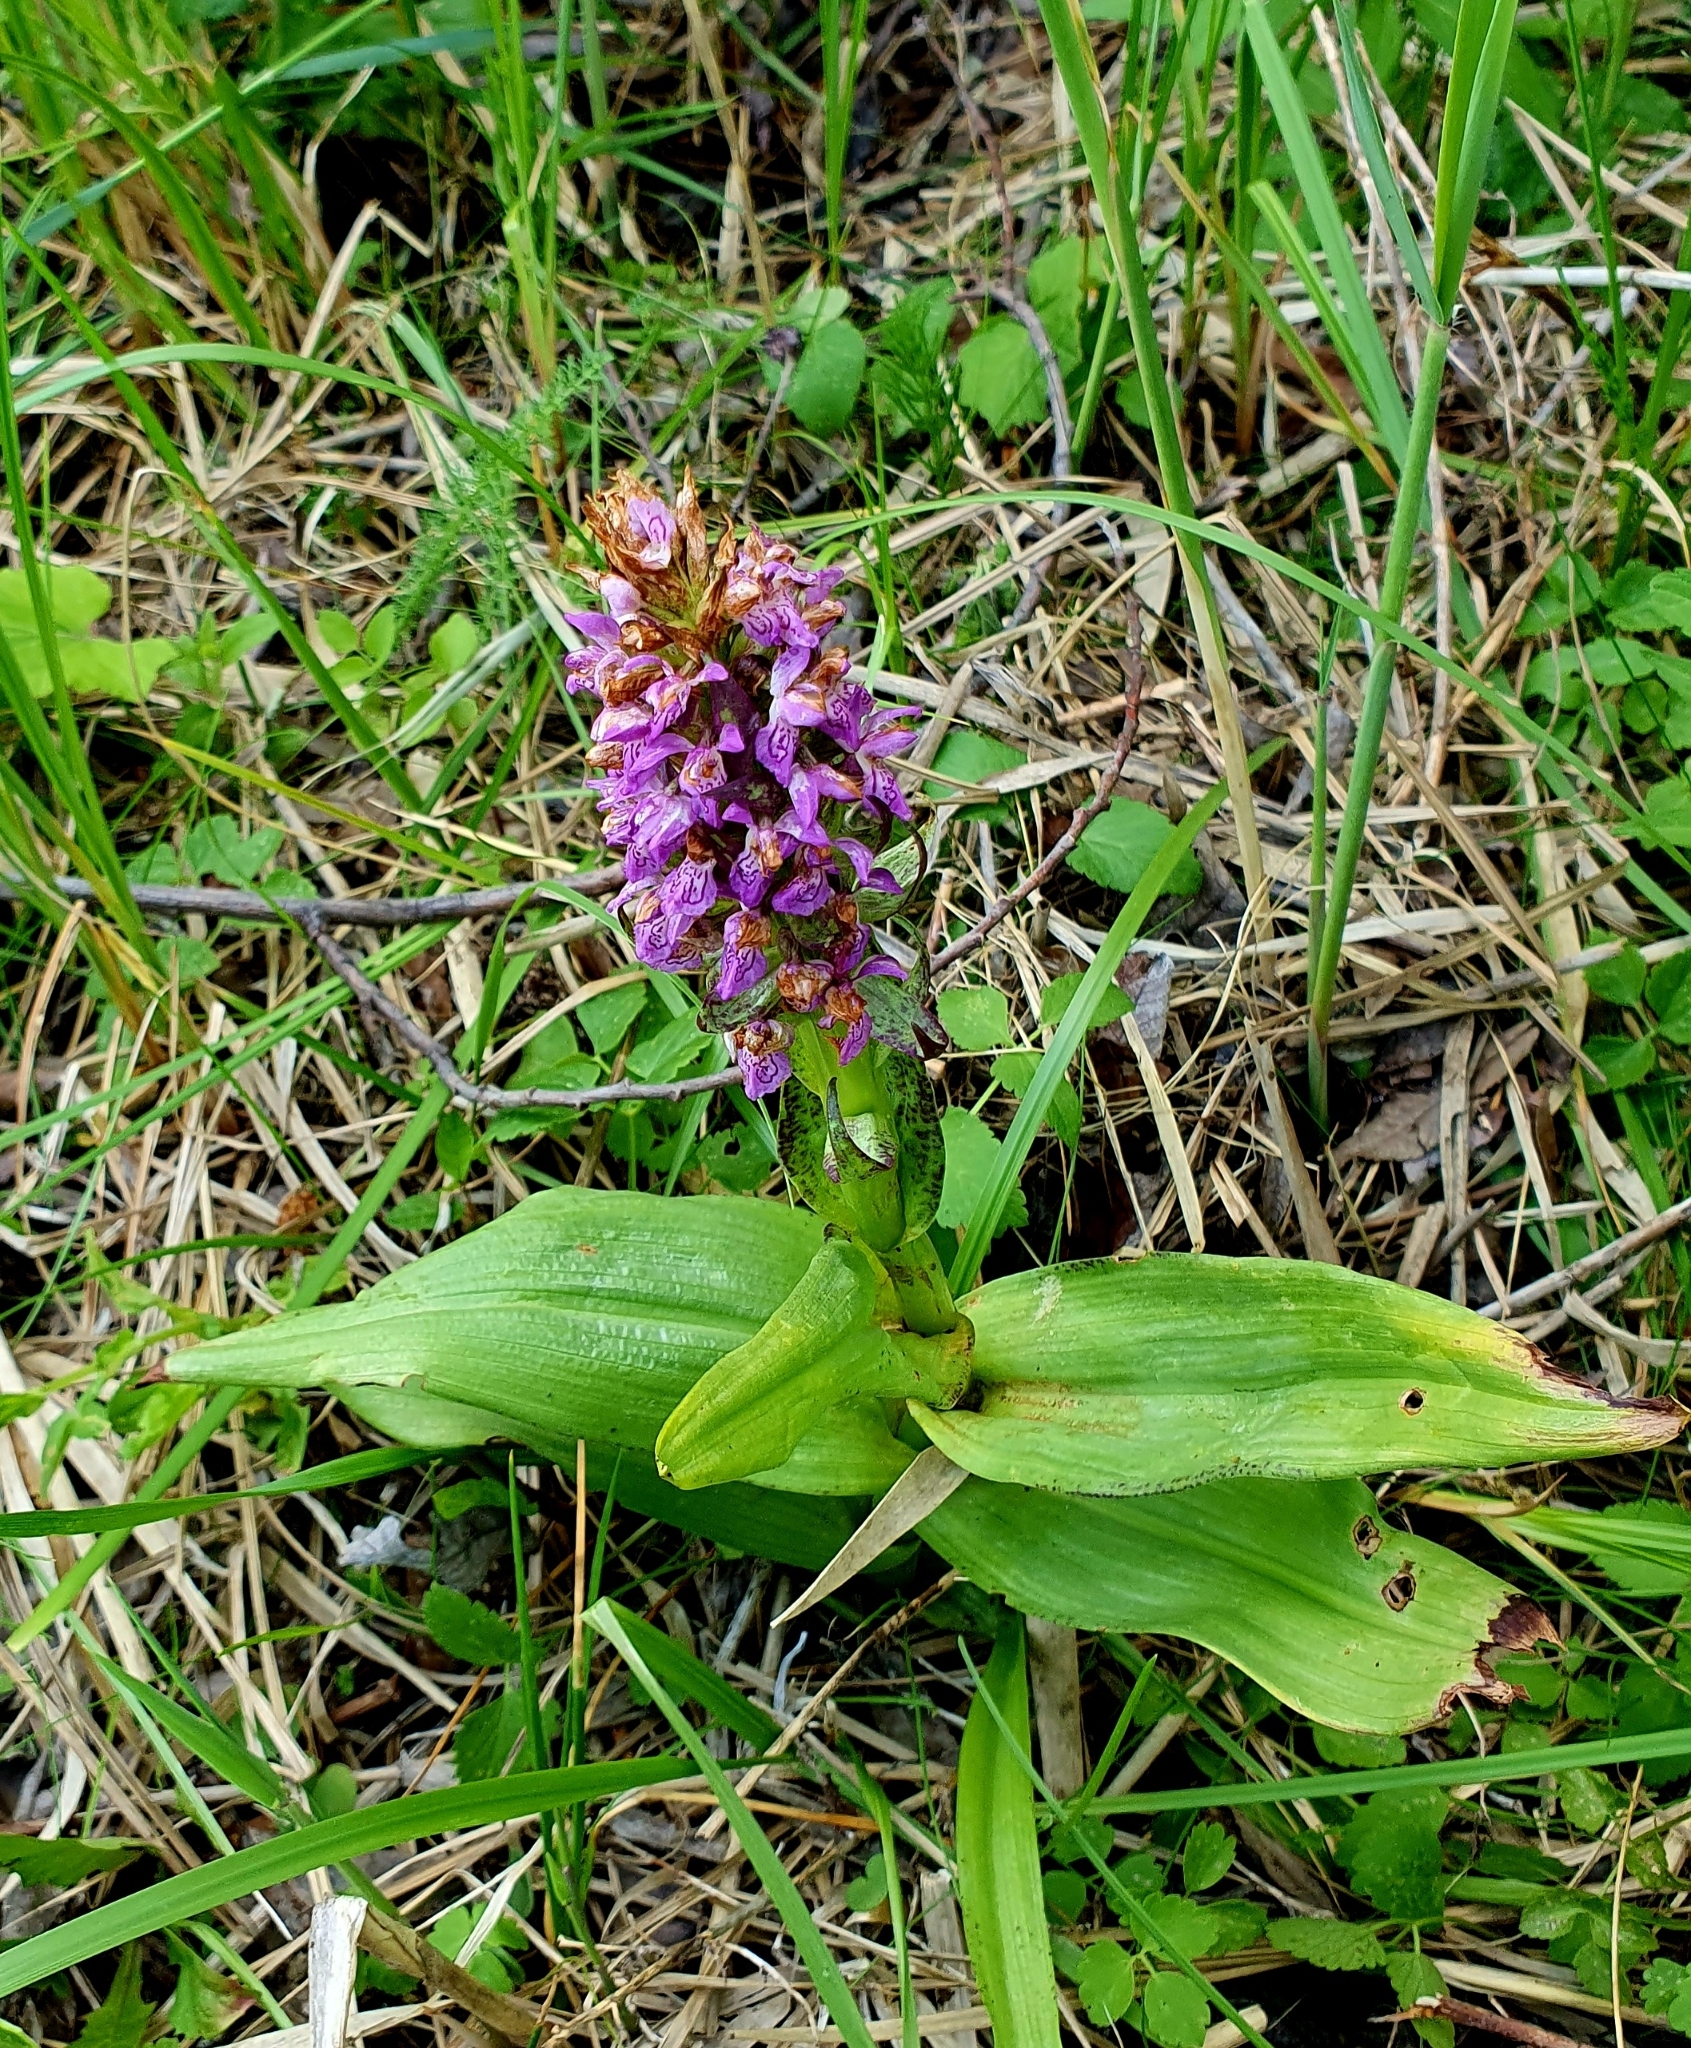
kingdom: Plantae
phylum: Tracheophyta
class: Liliopsida
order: Asparagales
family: Orchidaceae
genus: Dactylorhiza
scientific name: Dactylorhiza incarnata
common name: Early marsh-orchid
